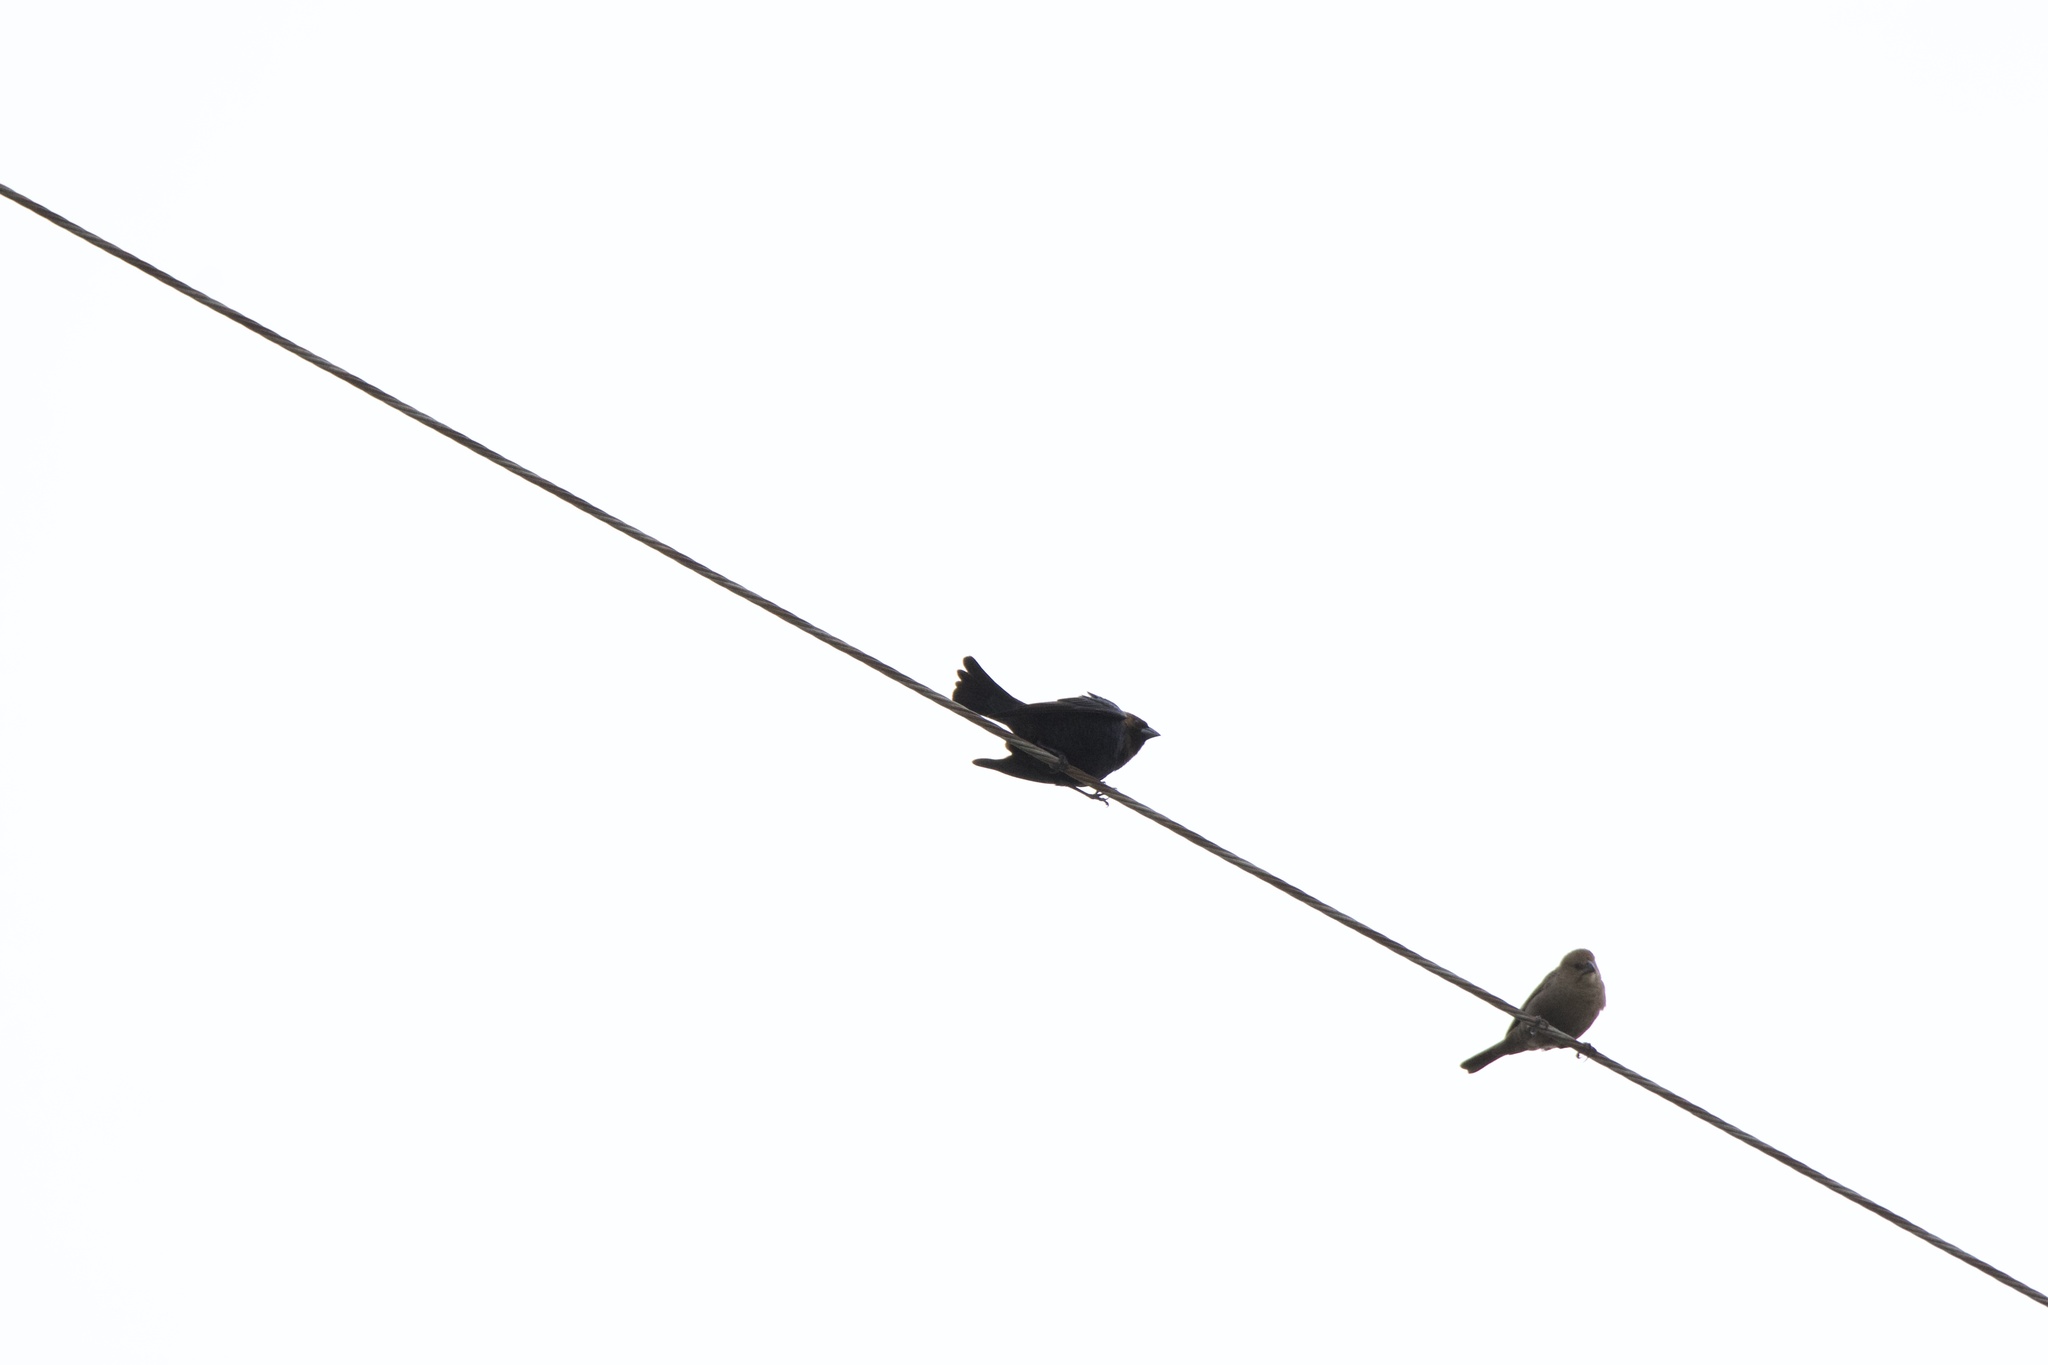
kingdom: Animalia
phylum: Chordata
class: Aves
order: Passeriformes
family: Icteridae
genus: Molothrus
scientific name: Molothrus ater
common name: Brown-headed cowbird
